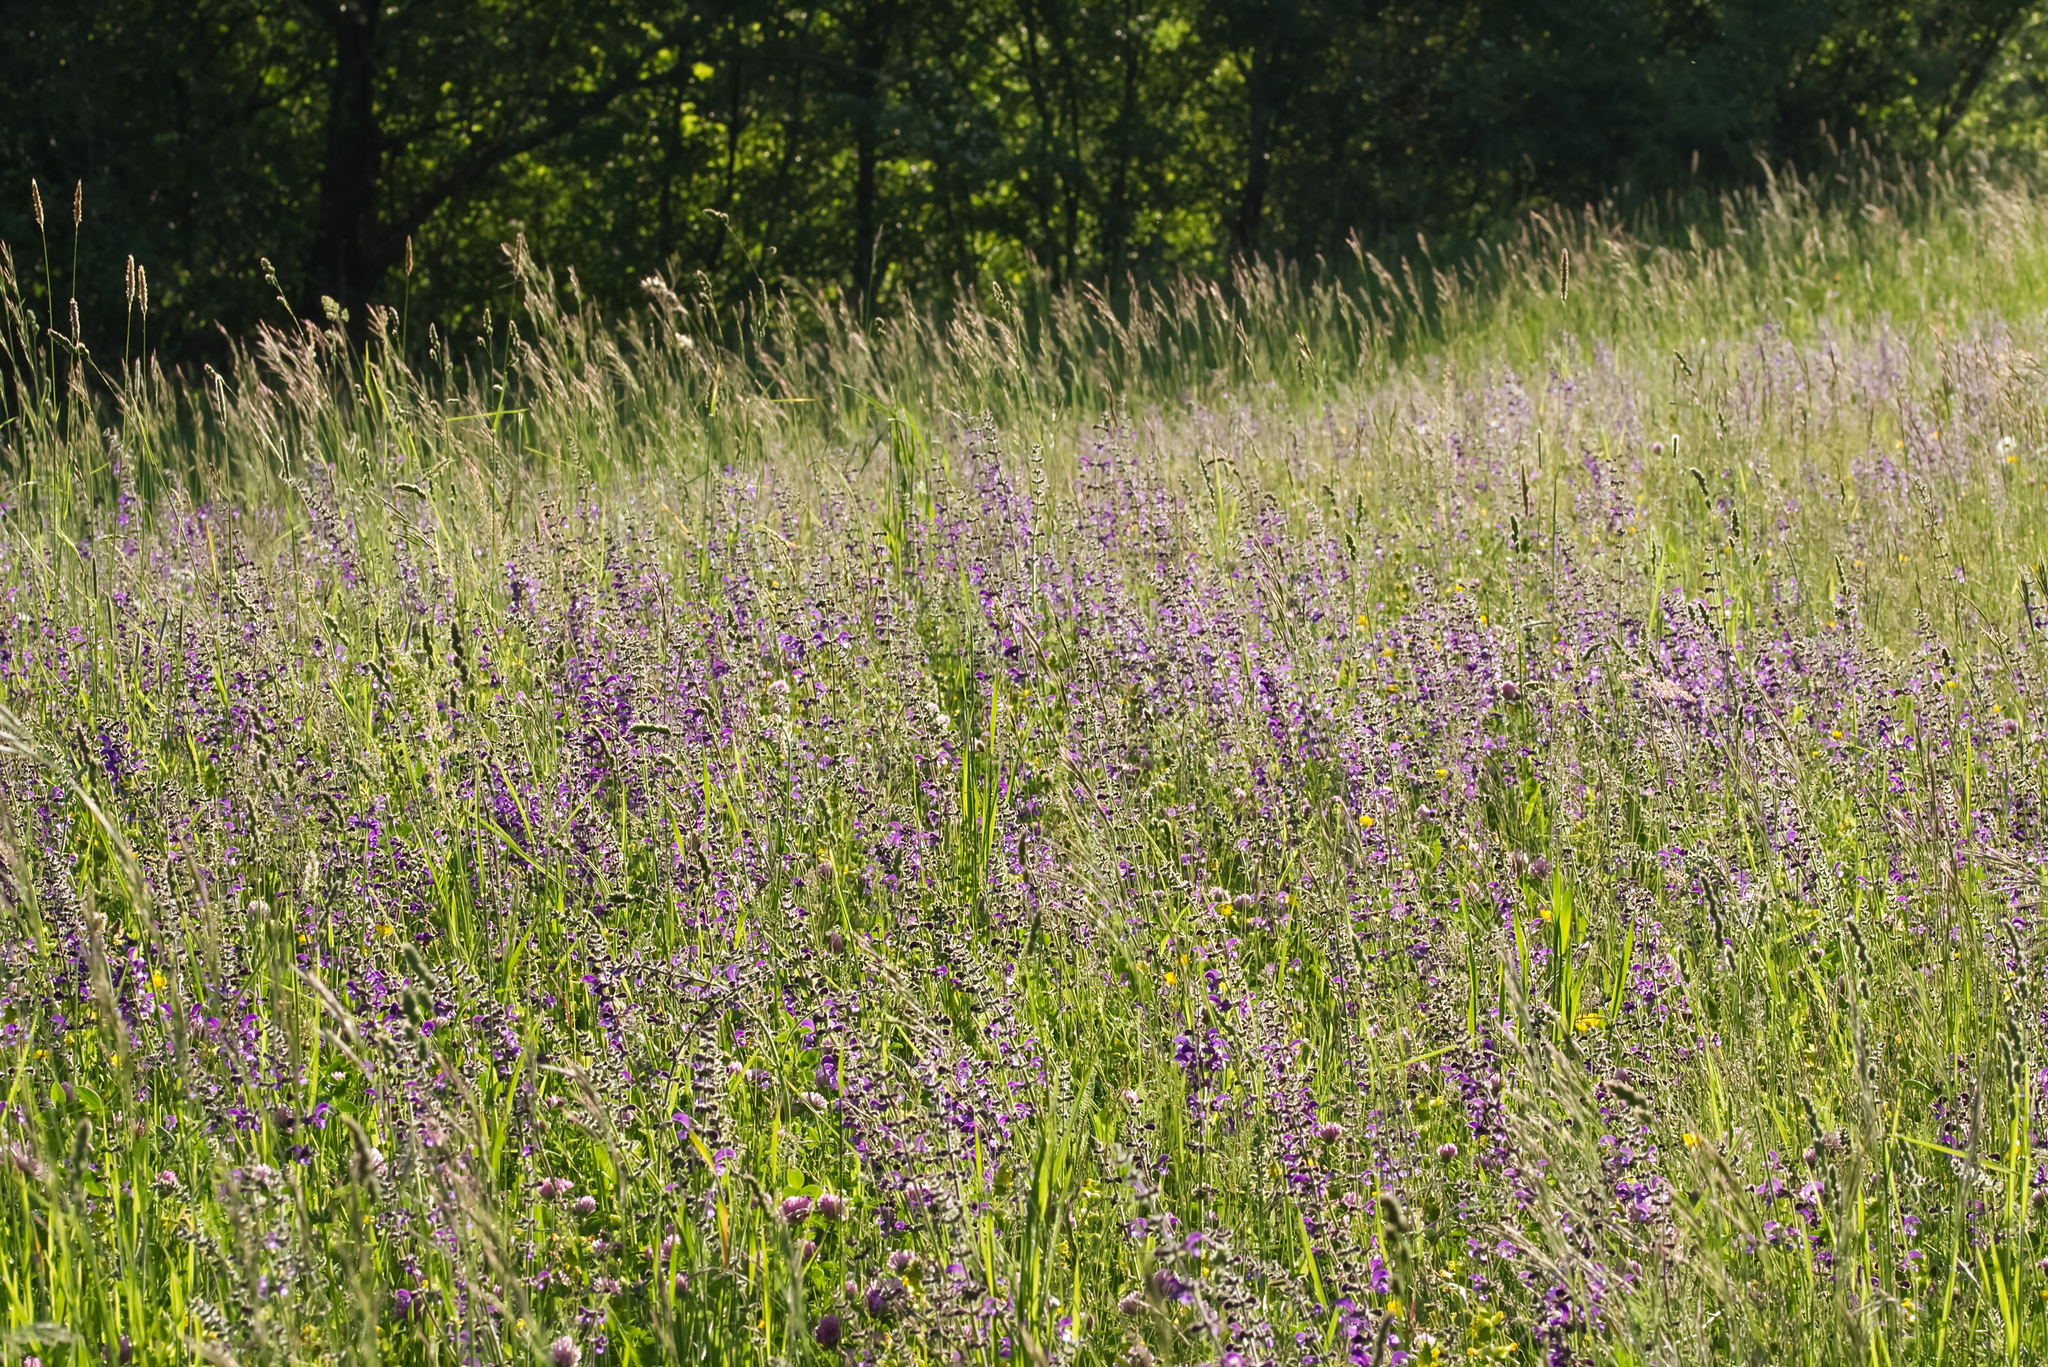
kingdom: Plantae
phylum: Tracheophyta
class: Magnoliopsida
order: Lamiales
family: Lamiaceae
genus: Salvia
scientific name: Salvia pratensis
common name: Meadow sage
